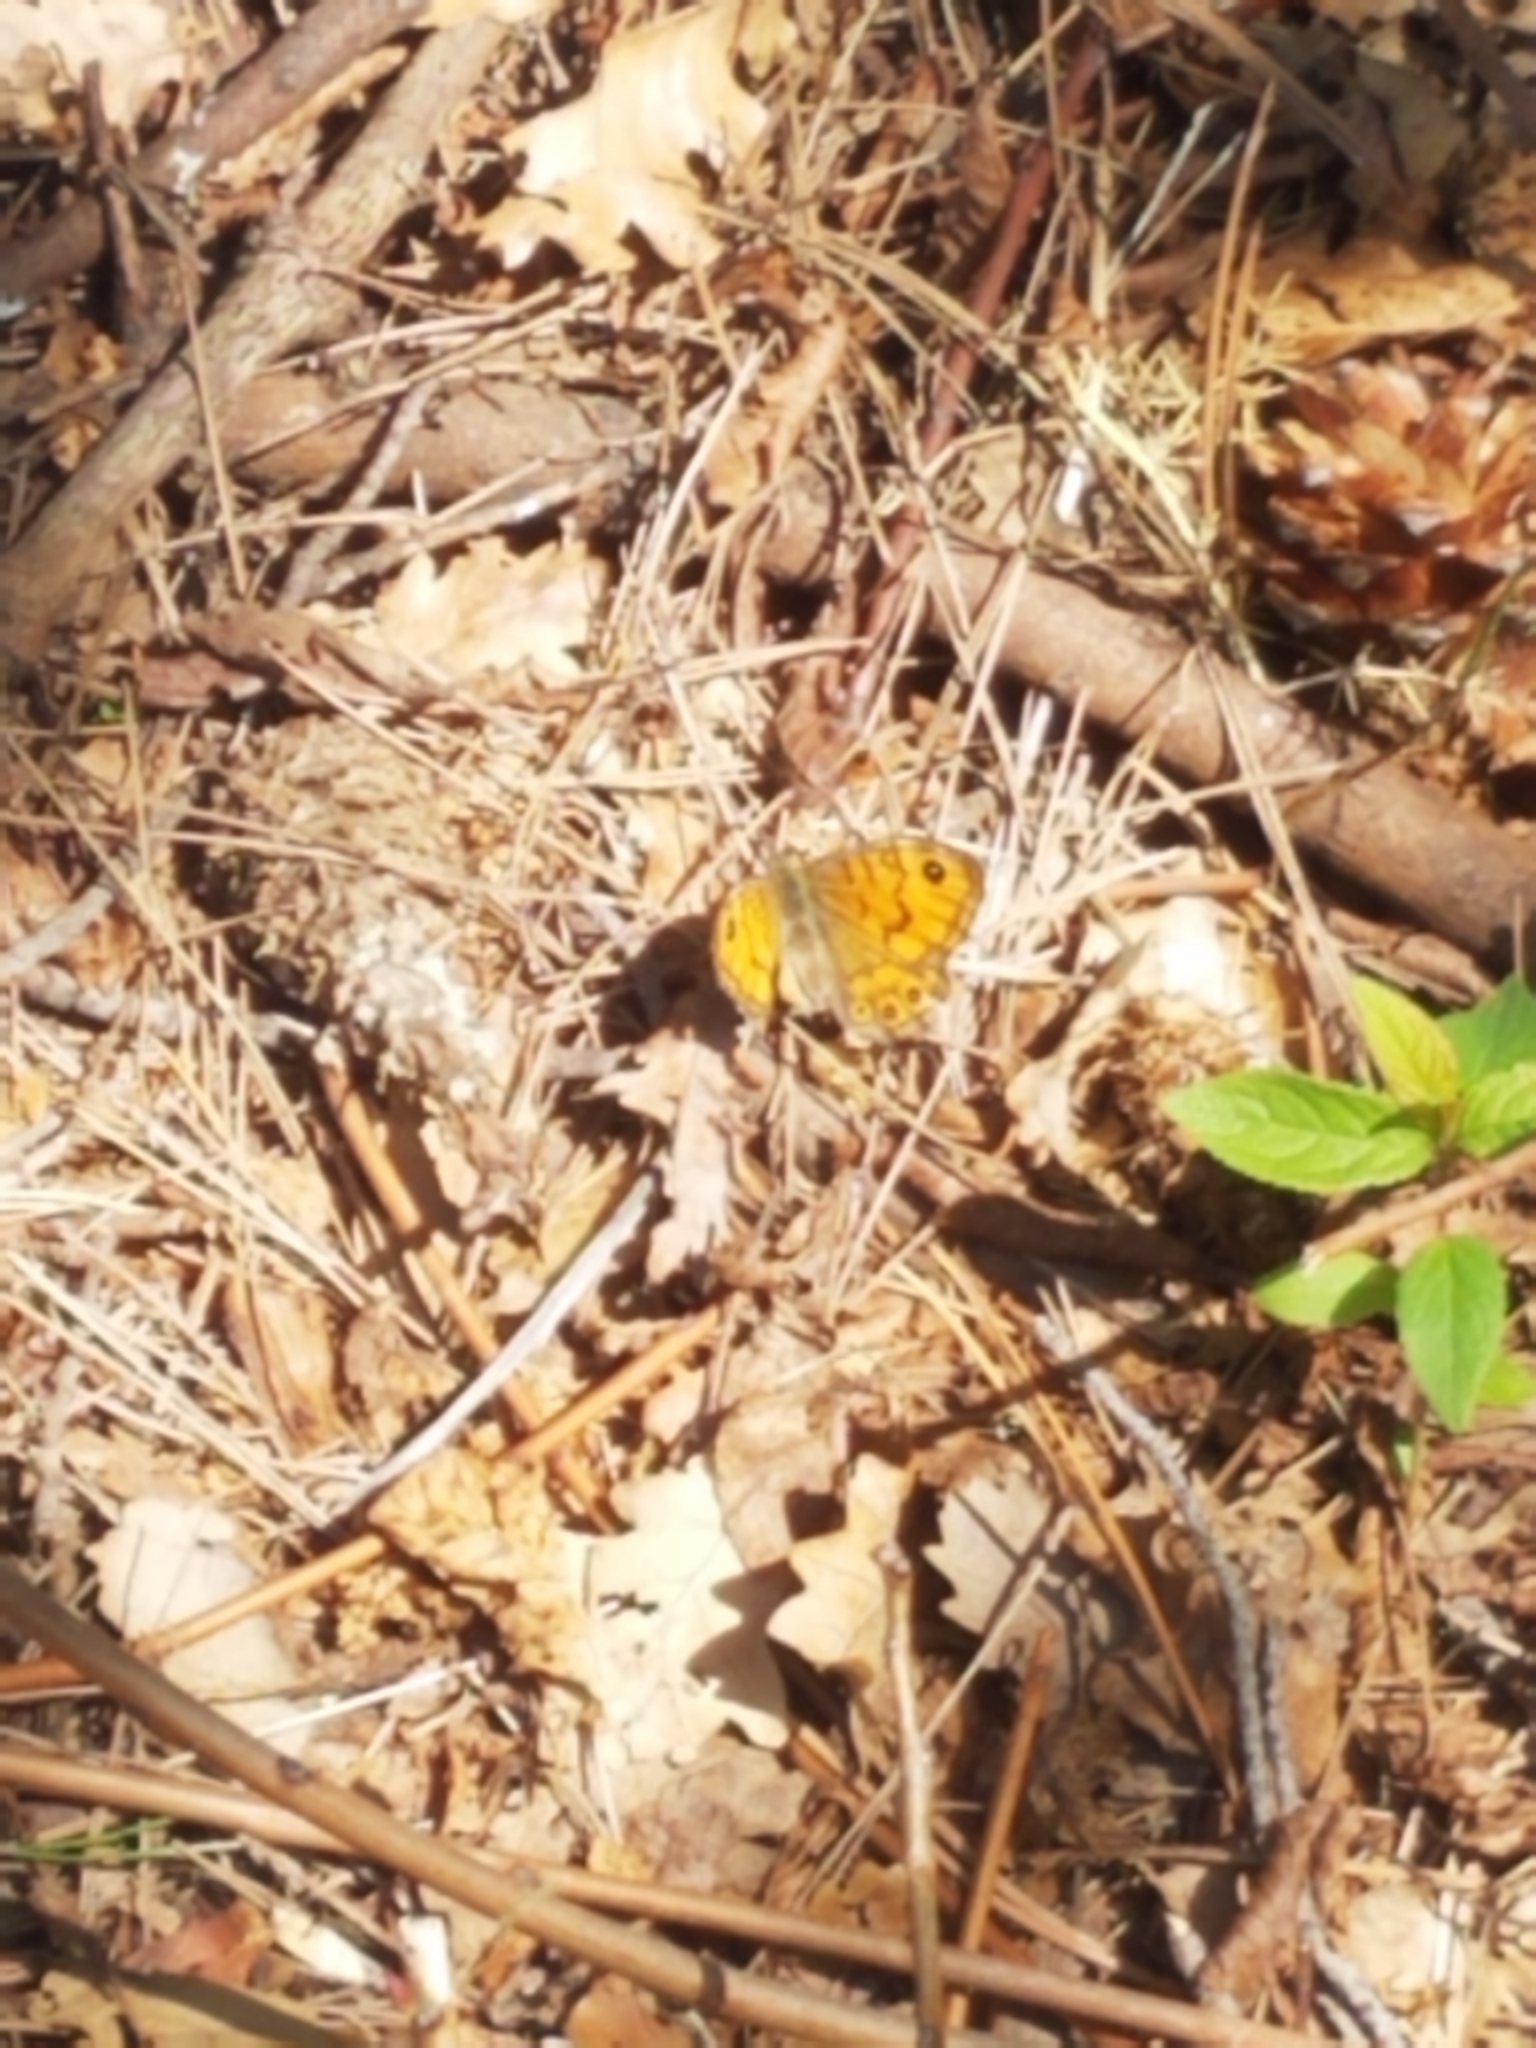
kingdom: Animalia
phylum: Arthropoda
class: Insecta
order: Lepidoptera
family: Nymphalidae
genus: Pararge
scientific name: Pararge Lasiommata megera
